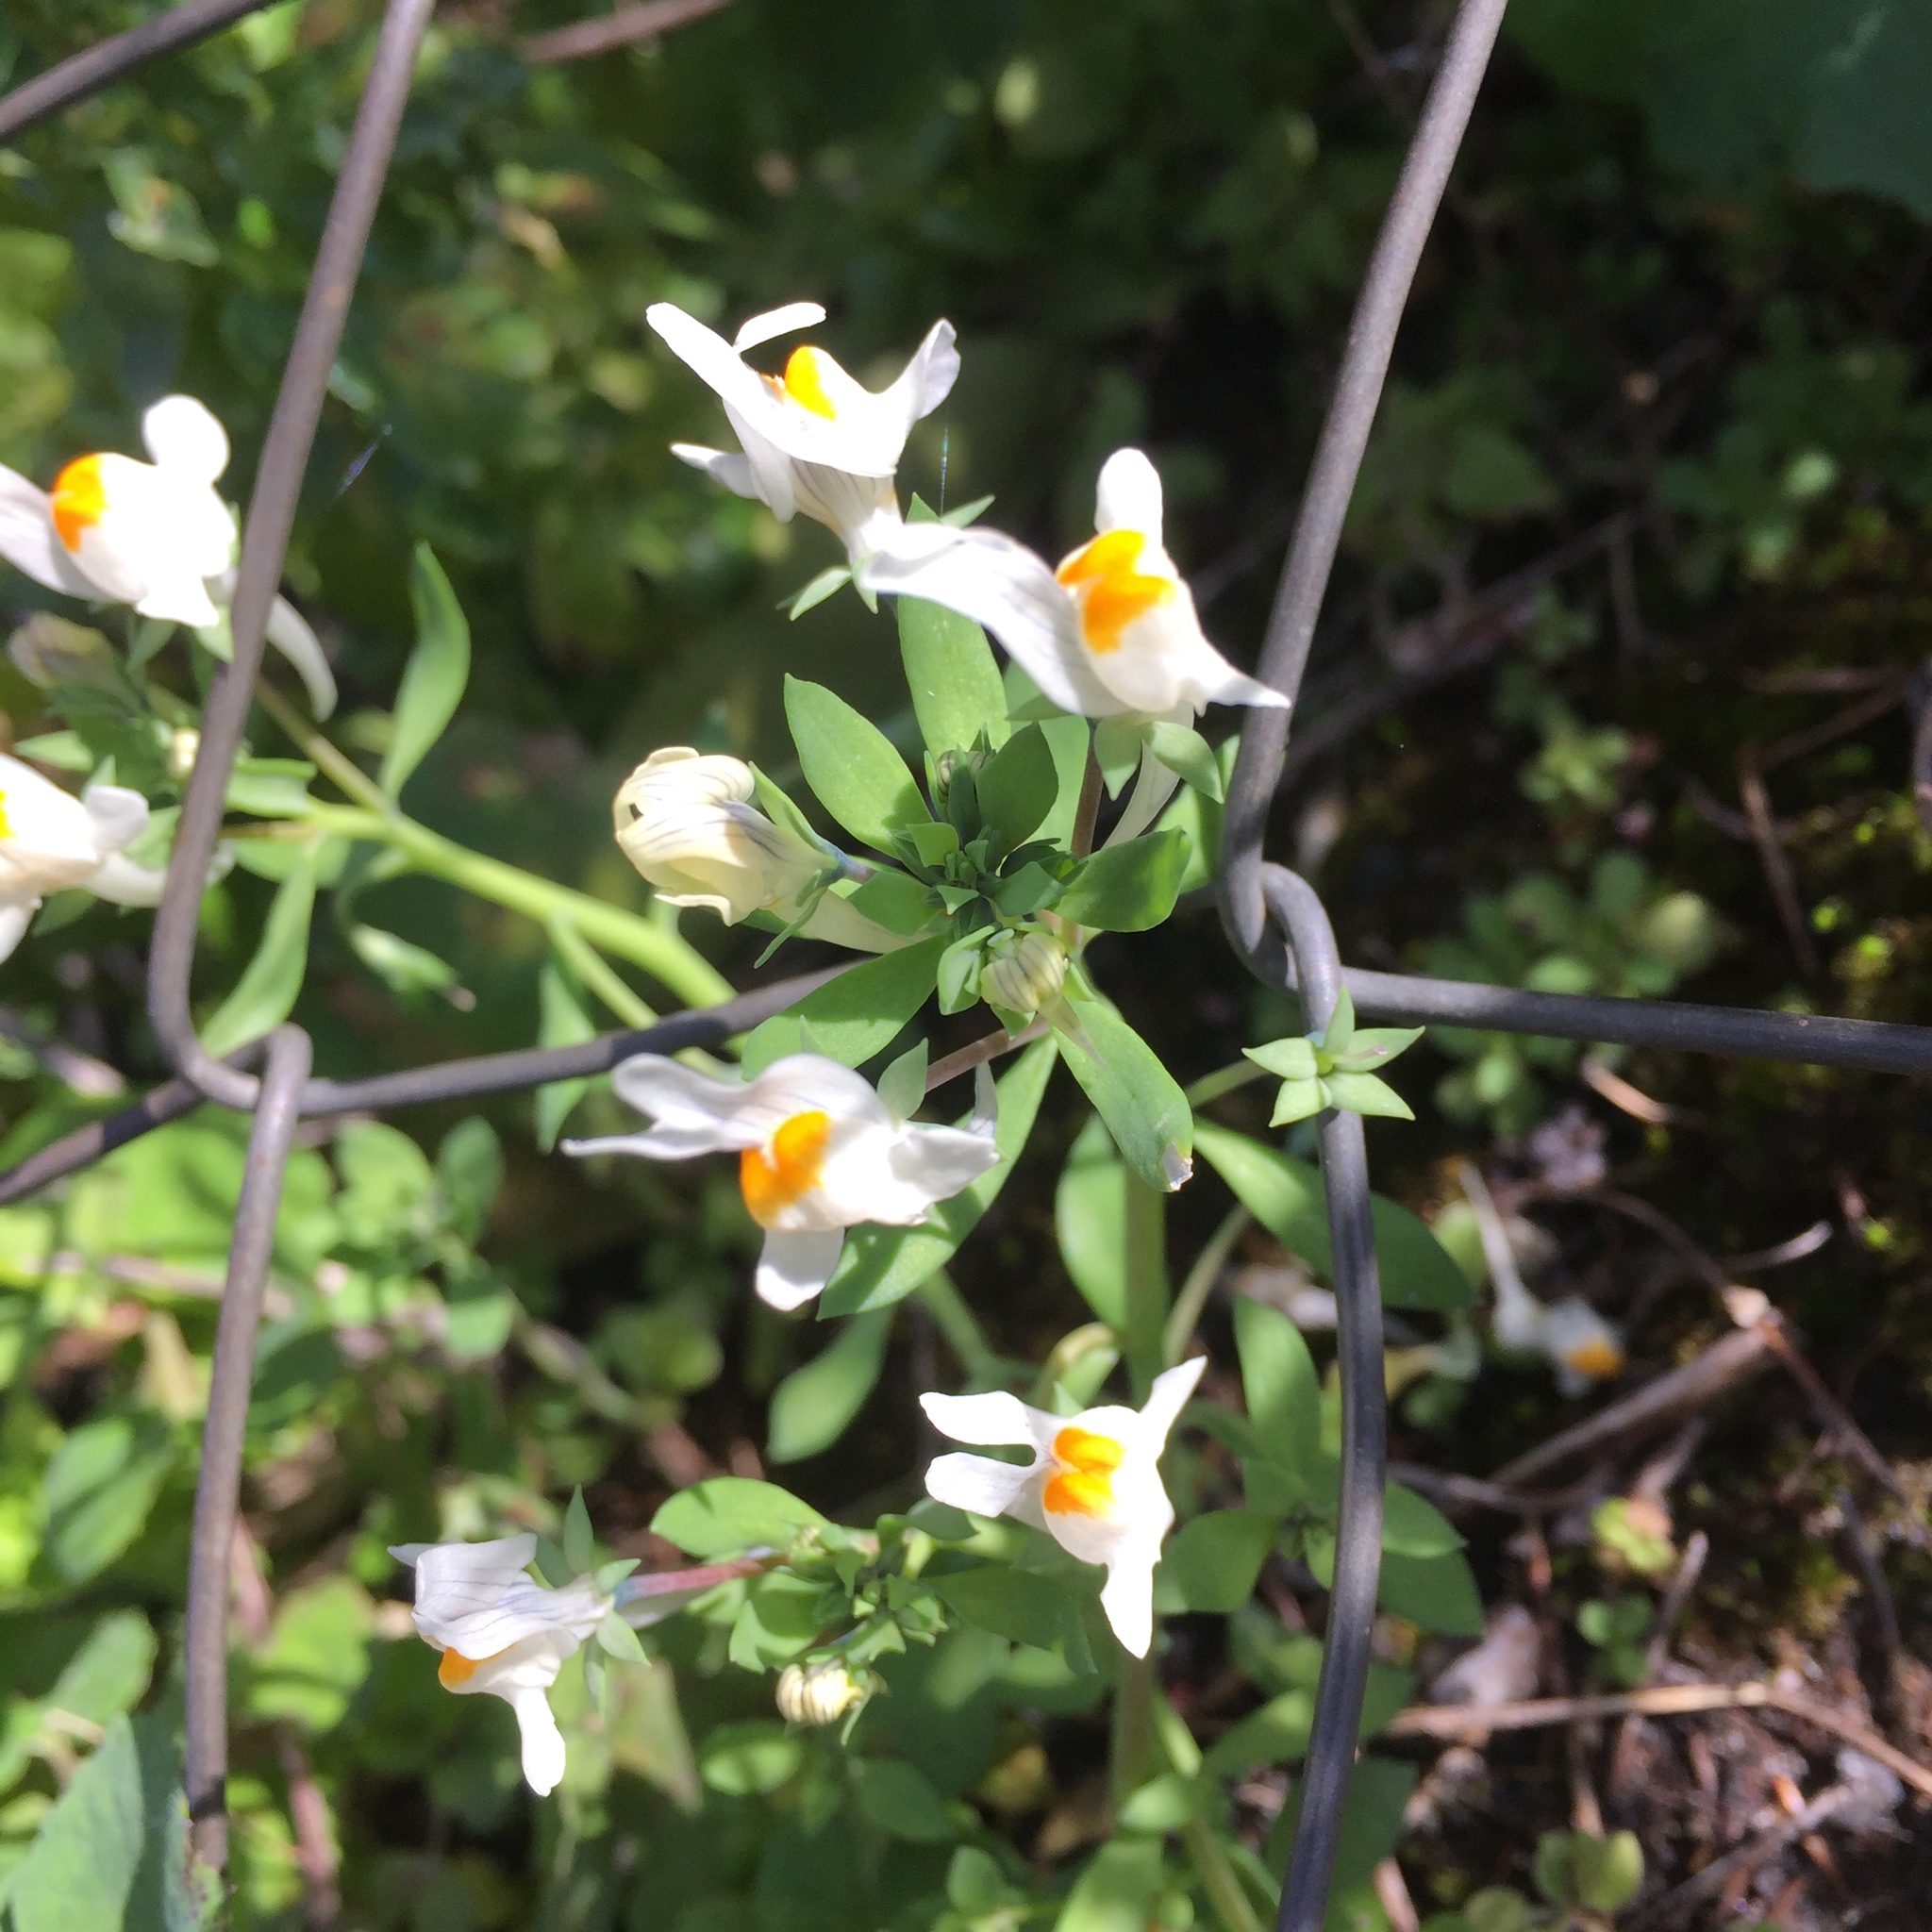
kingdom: Plantae
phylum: Tracheophyta
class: Magnoliopsida
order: Lamiales
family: Plantaginaceae
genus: Linaria
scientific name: Linaria reflexa
